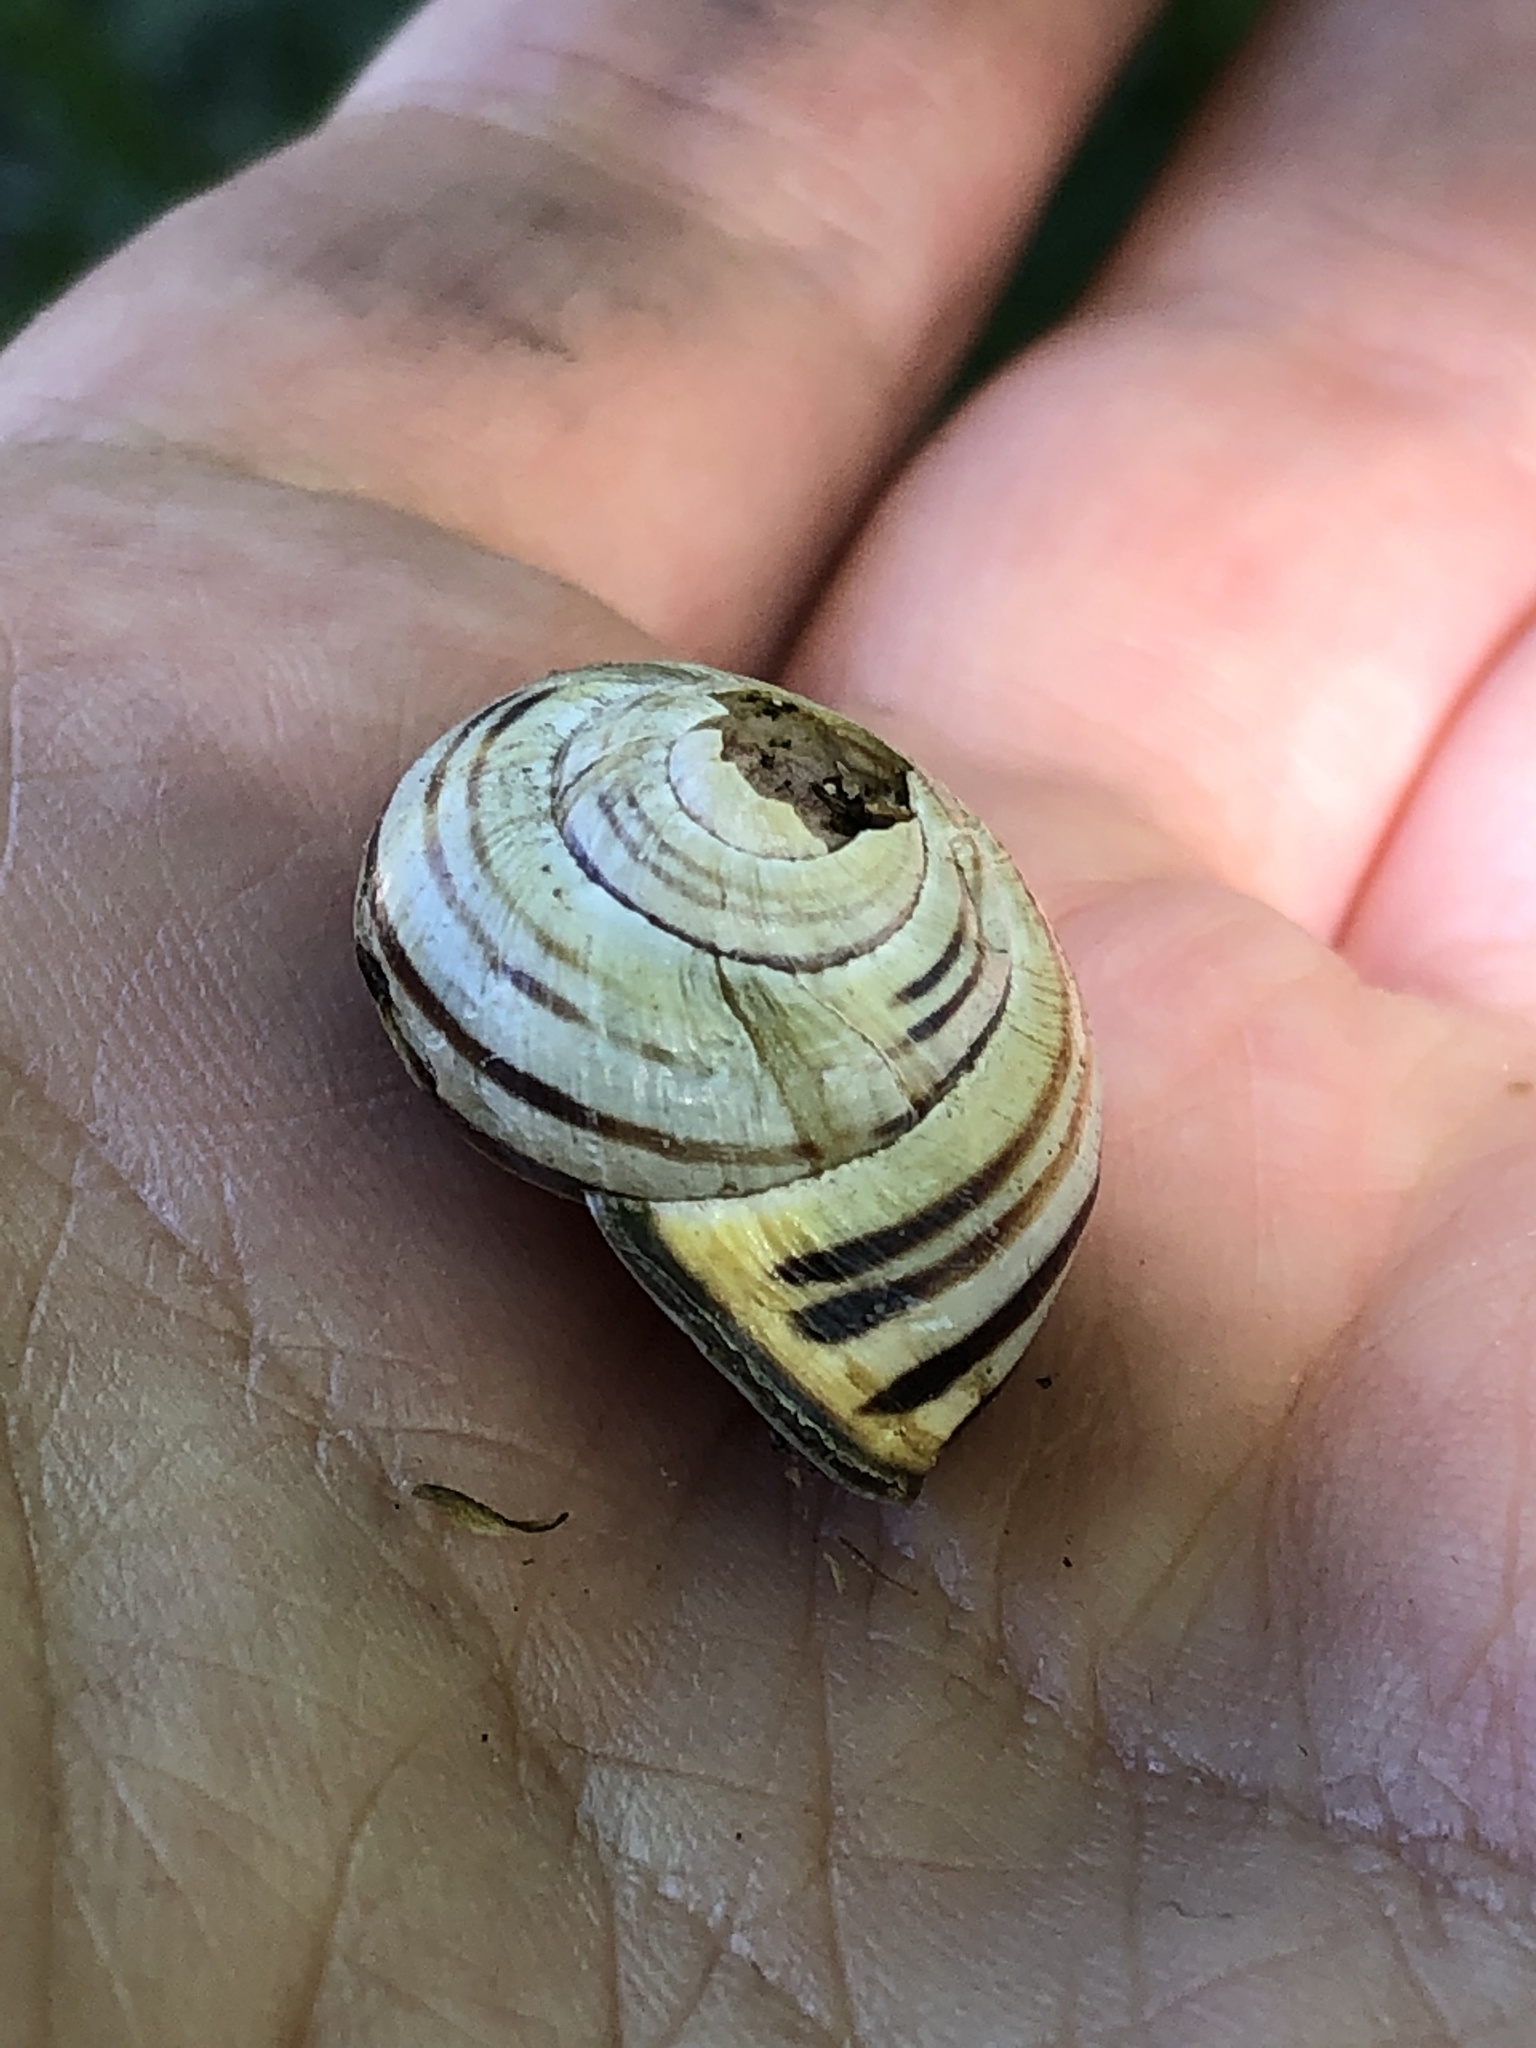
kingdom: Animalia
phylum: Mollusca
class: Gastropoda
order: Stylommatophora
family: Helicidae
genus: Cepaea
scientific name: Cepaea nemoralis
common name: Grovesnail
